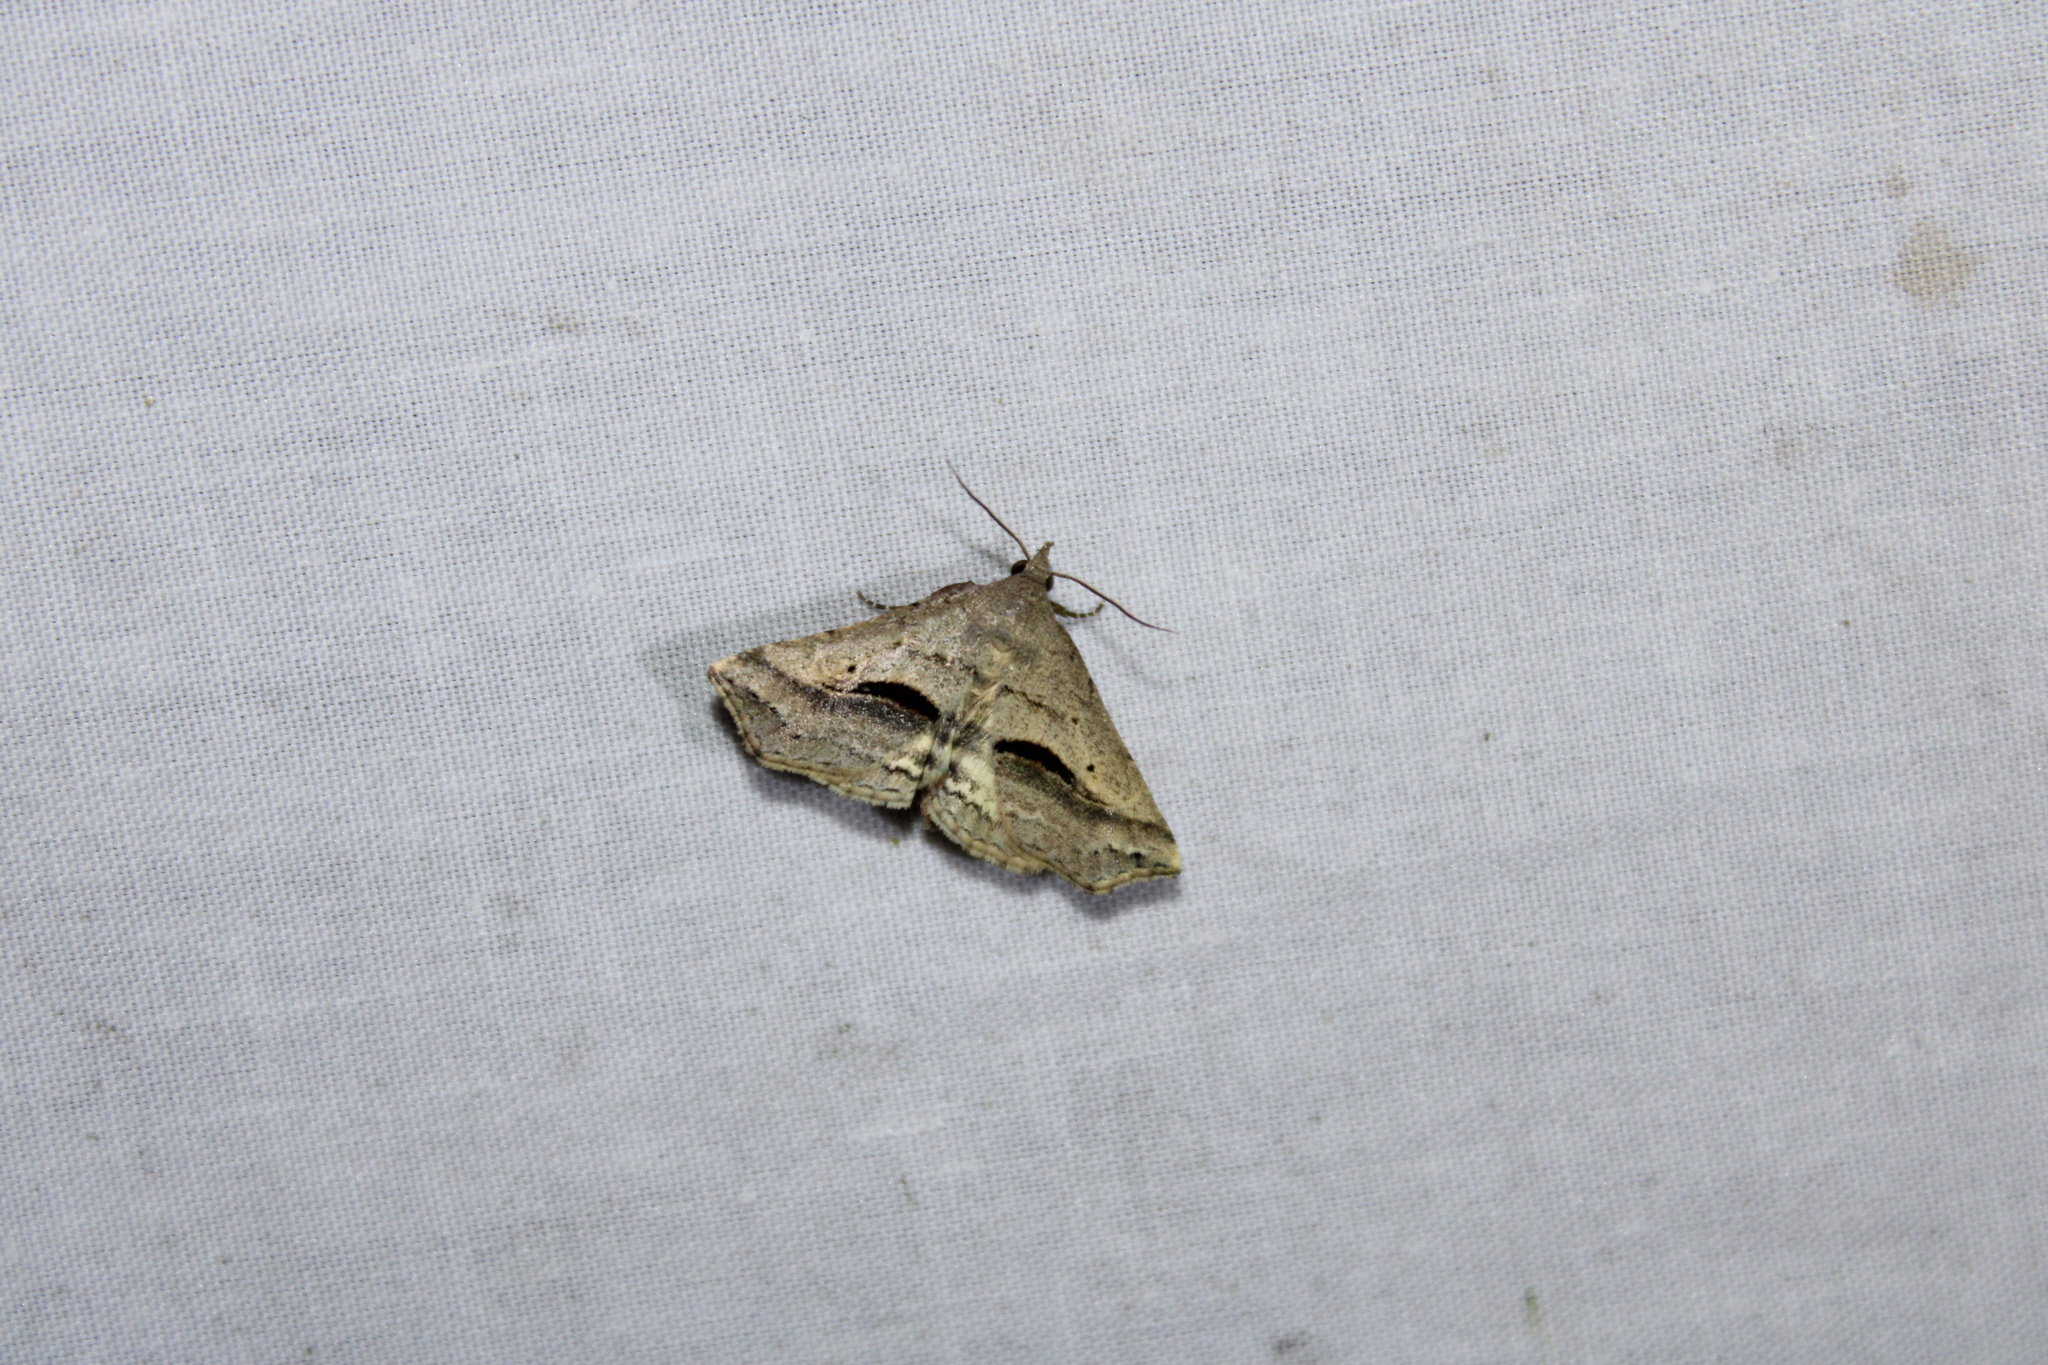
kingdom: Animalia
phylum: Arthropoda
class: Insecta
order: Lepidoptera
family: Erebidae
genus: Spargaloma
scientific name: Spargaloma perditalis
